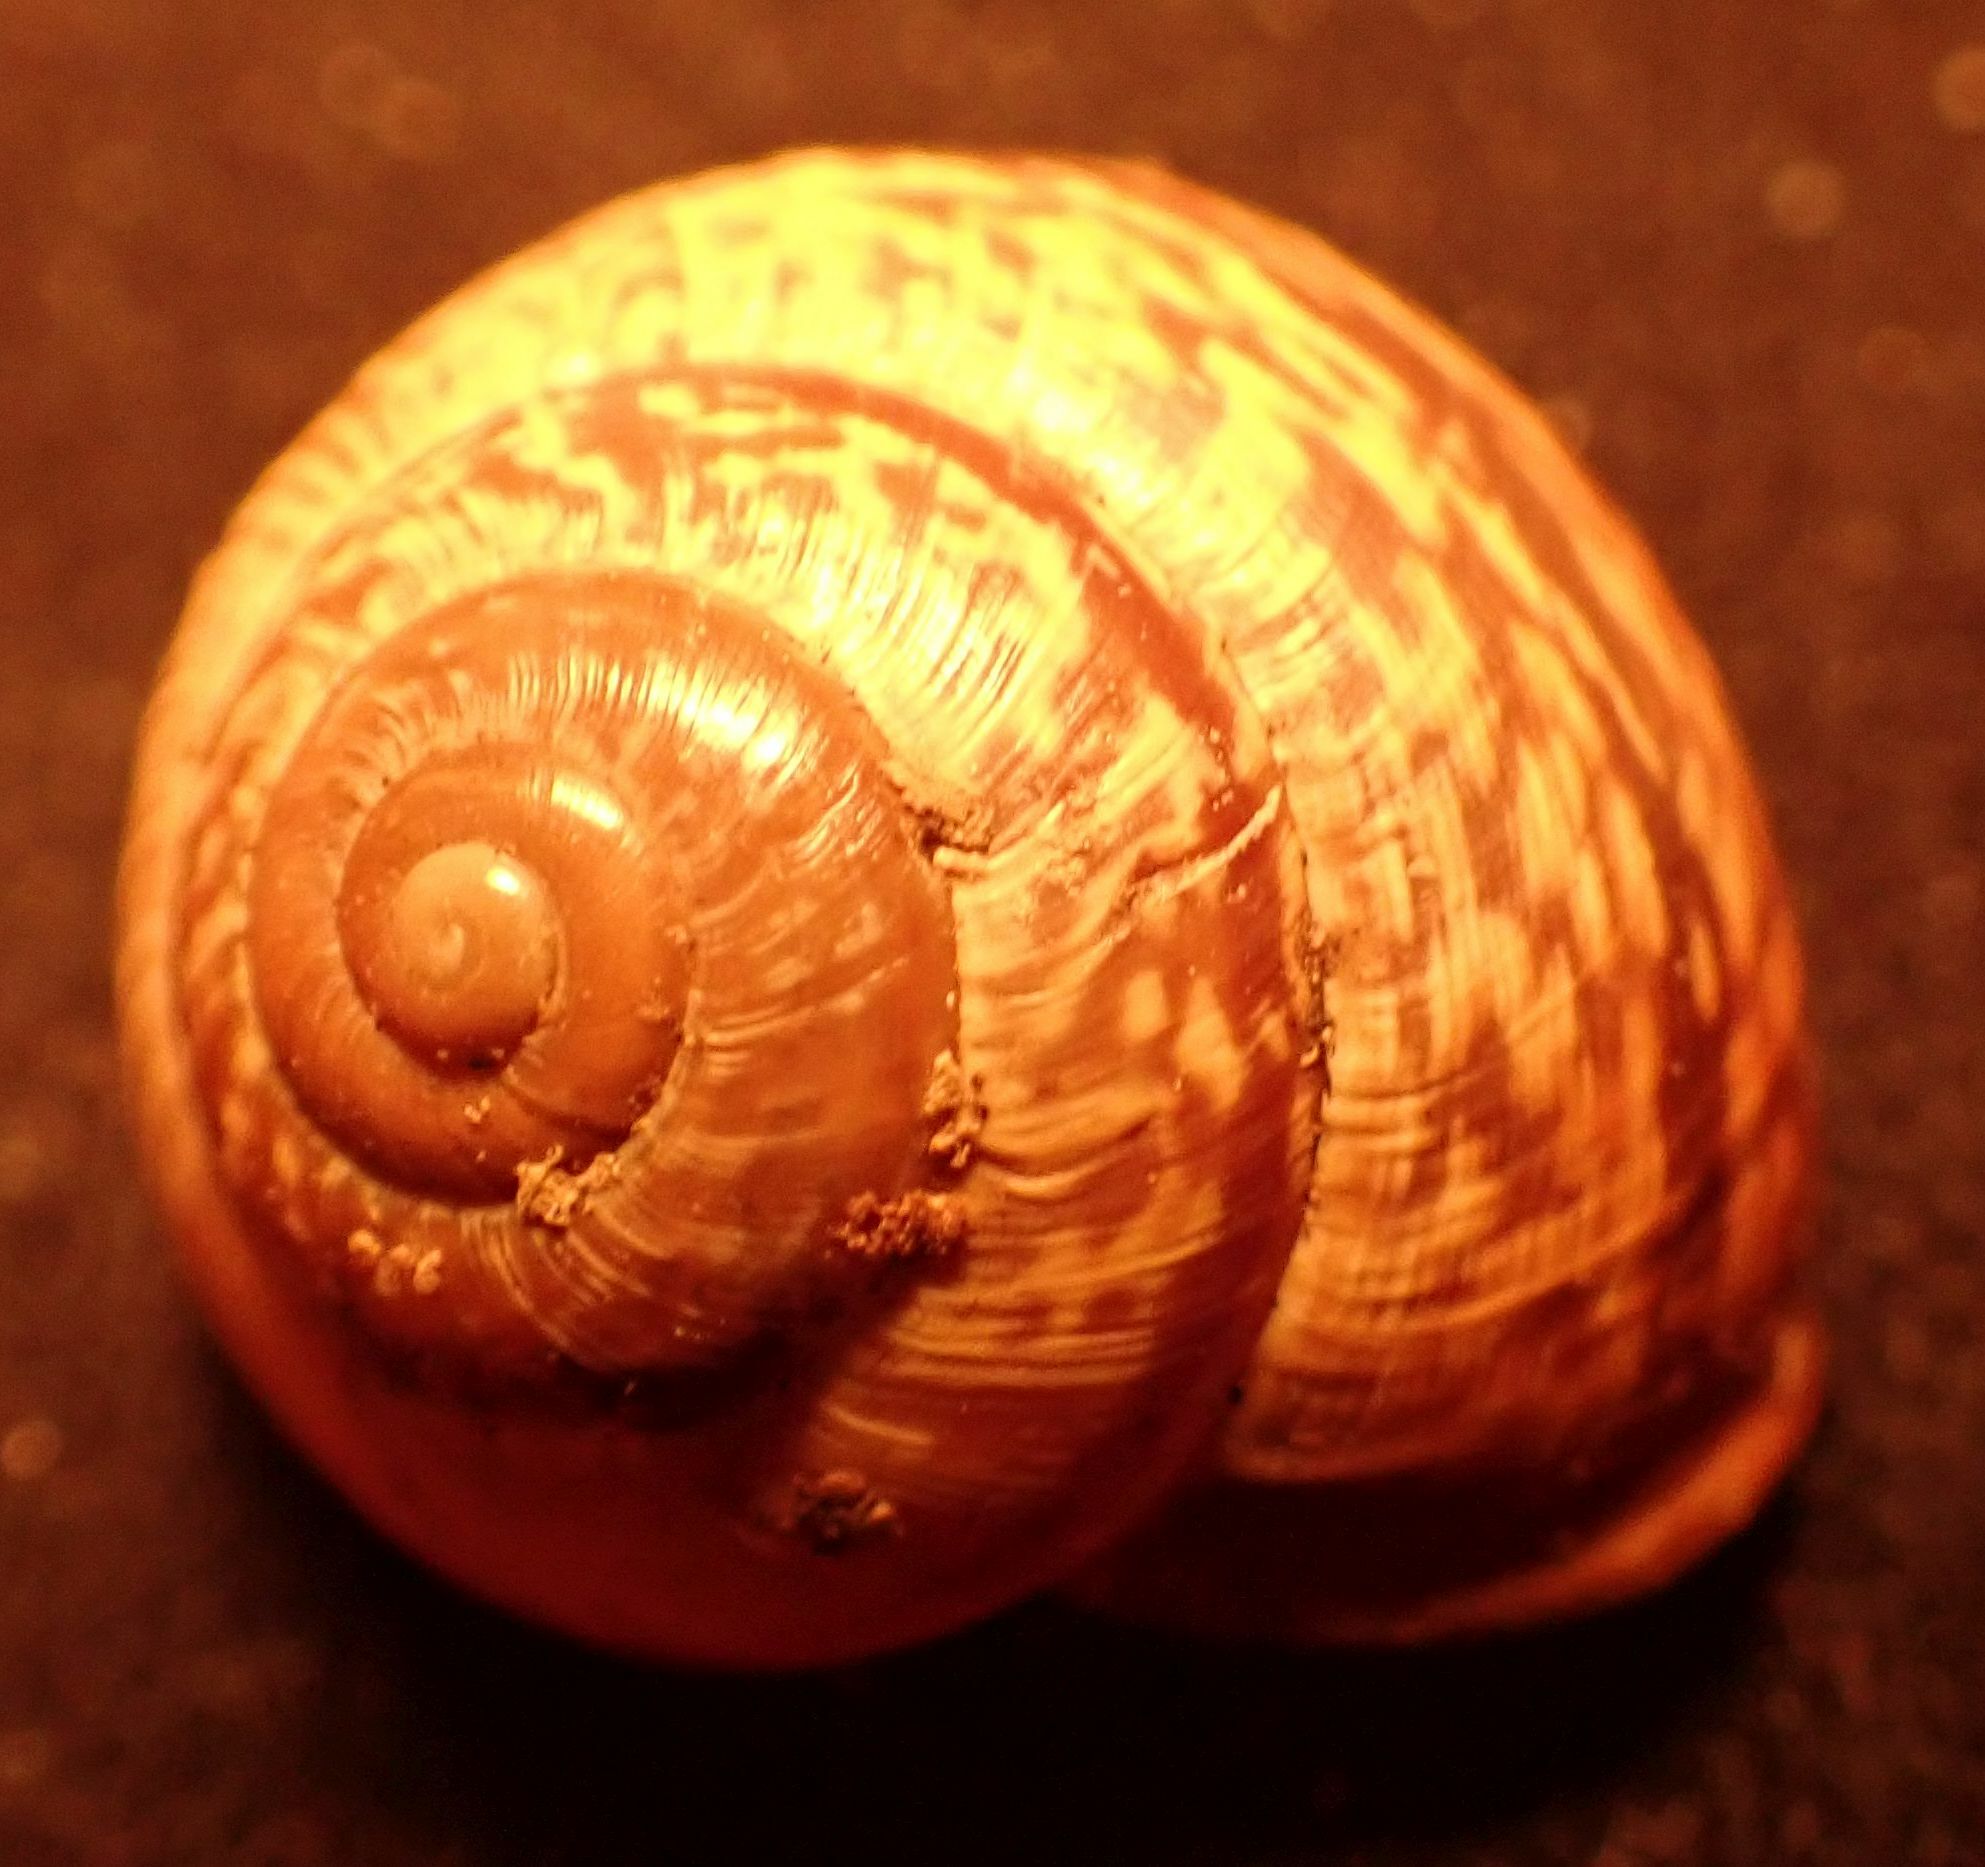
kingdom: Animalia
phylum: Mollusca
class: Gastropoda
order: Stylommatophora
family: Helicidae
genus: Arianta
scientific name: Arianta arbustorum
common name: Copse snail
